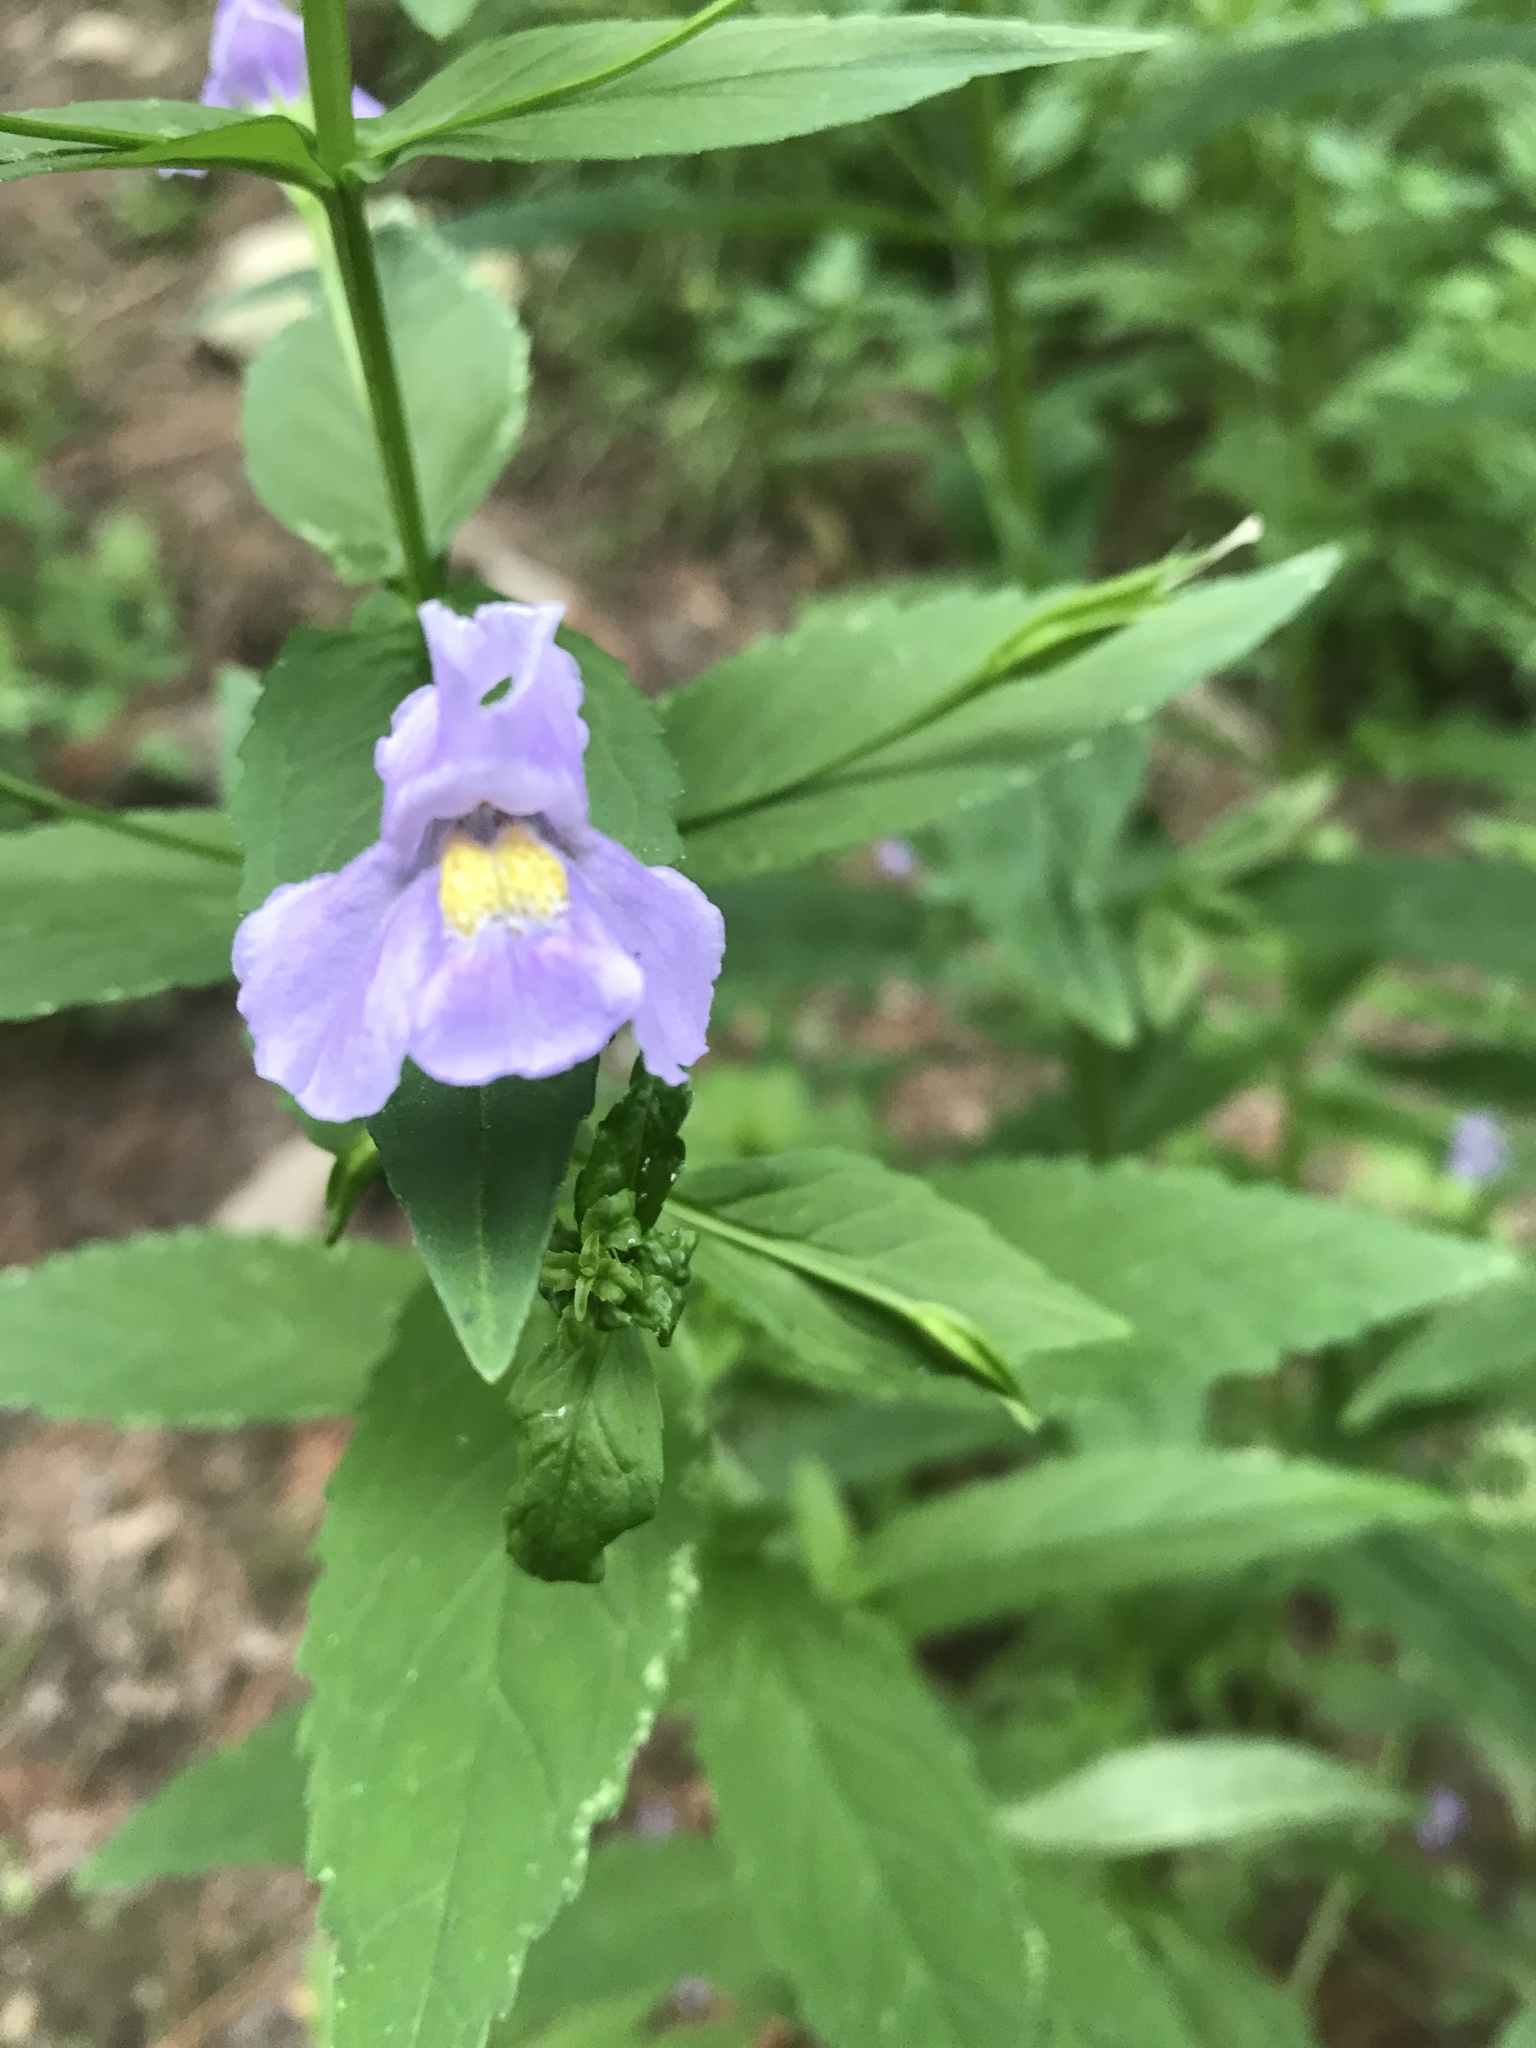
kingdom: Plantae
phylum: Tracheophyta
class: Magnoliopsida
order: Lamiales
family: Phrymaceae
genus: Mimulus
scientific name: Mimulus ringens
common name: Allegheny monkeyflower
